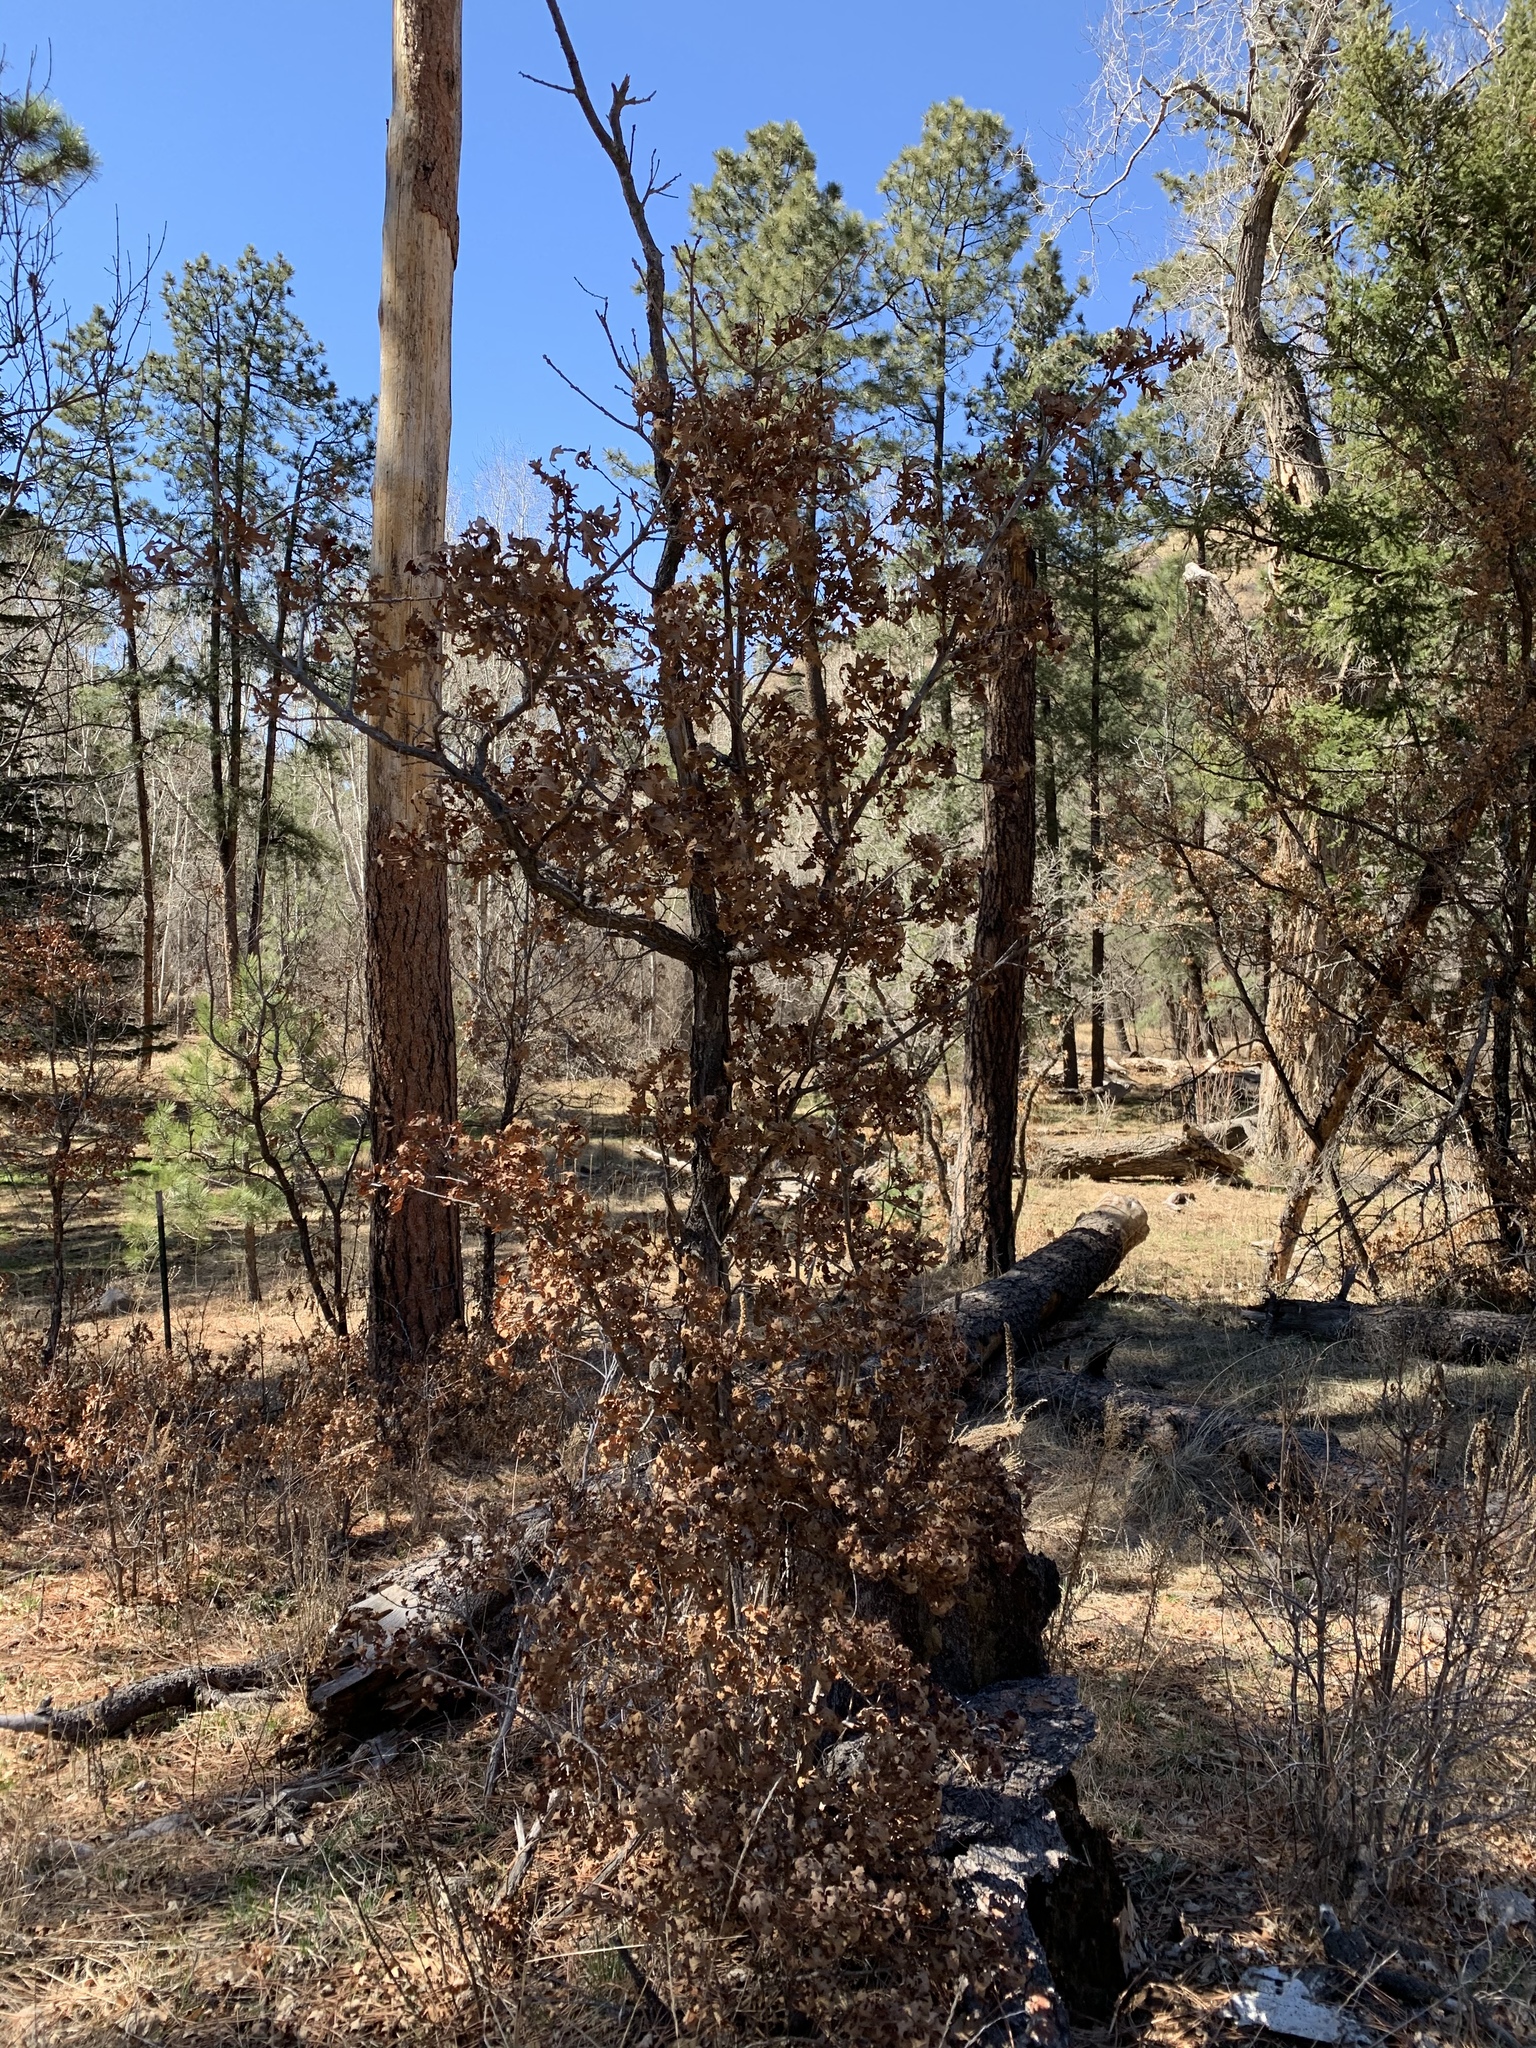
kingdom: Plantae
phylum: Tracheophyta
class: Magnoliopsida
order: Fagales
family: Fagaceae
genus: Quercus
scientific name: Quercus gambelii
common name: Gambel oak
